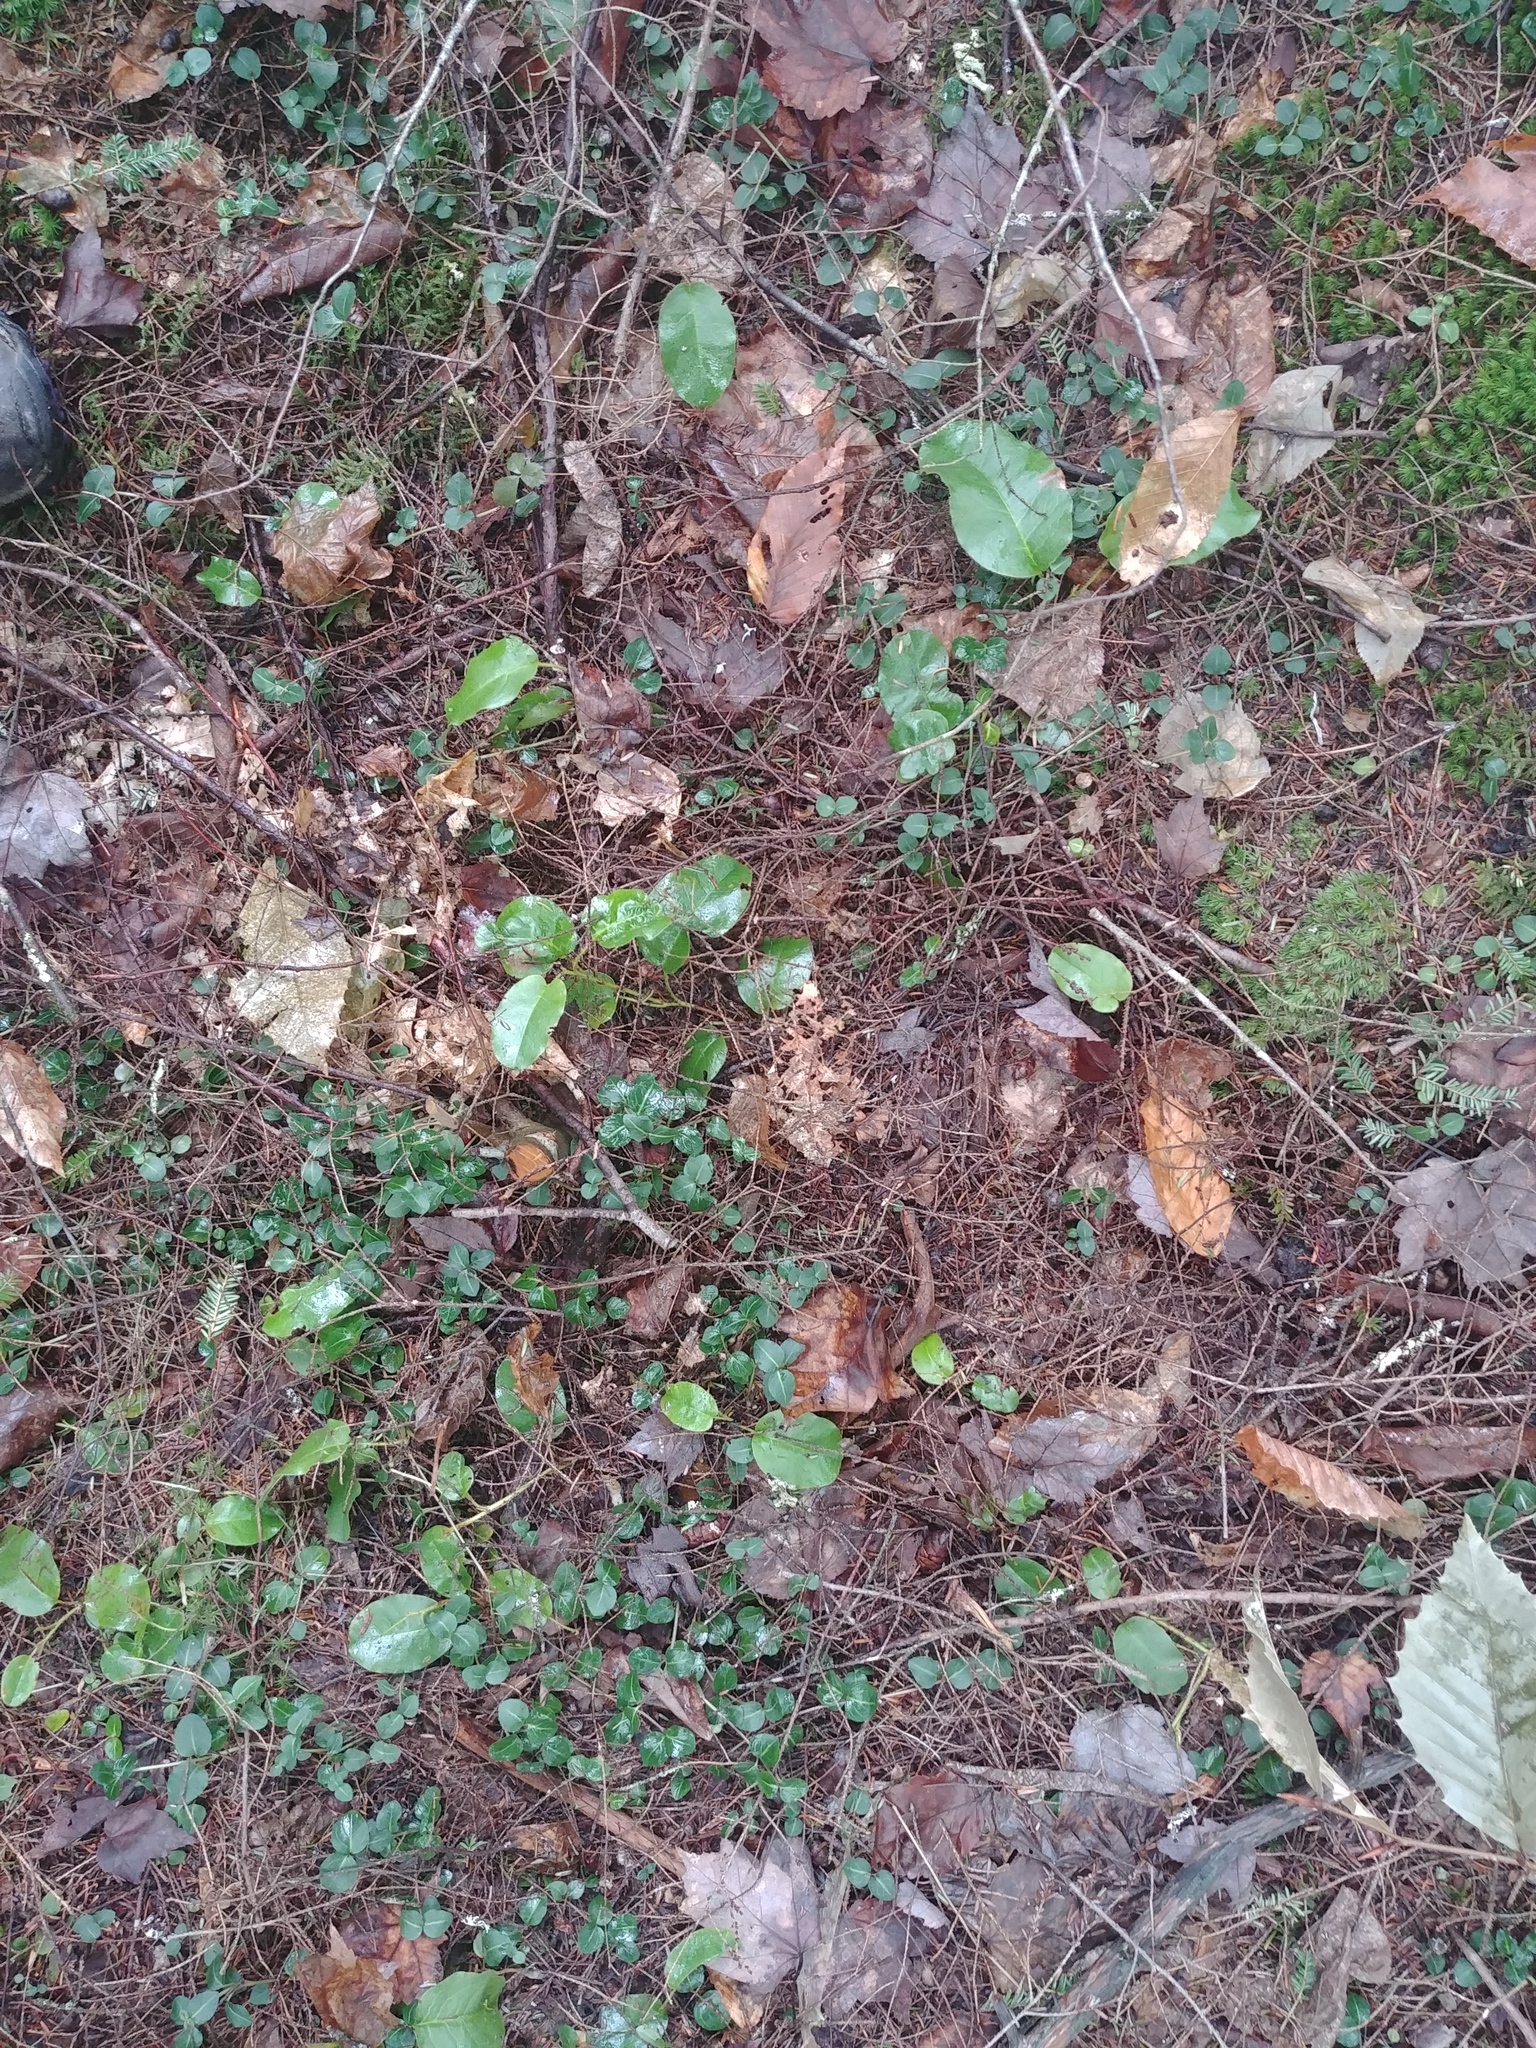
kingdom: Plantae
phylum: Tracheophyta
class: Magnoliopsida
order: Ericales
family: Ericaceae
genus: Epigaea
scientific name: Epigaea repens
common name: Gravelroot
